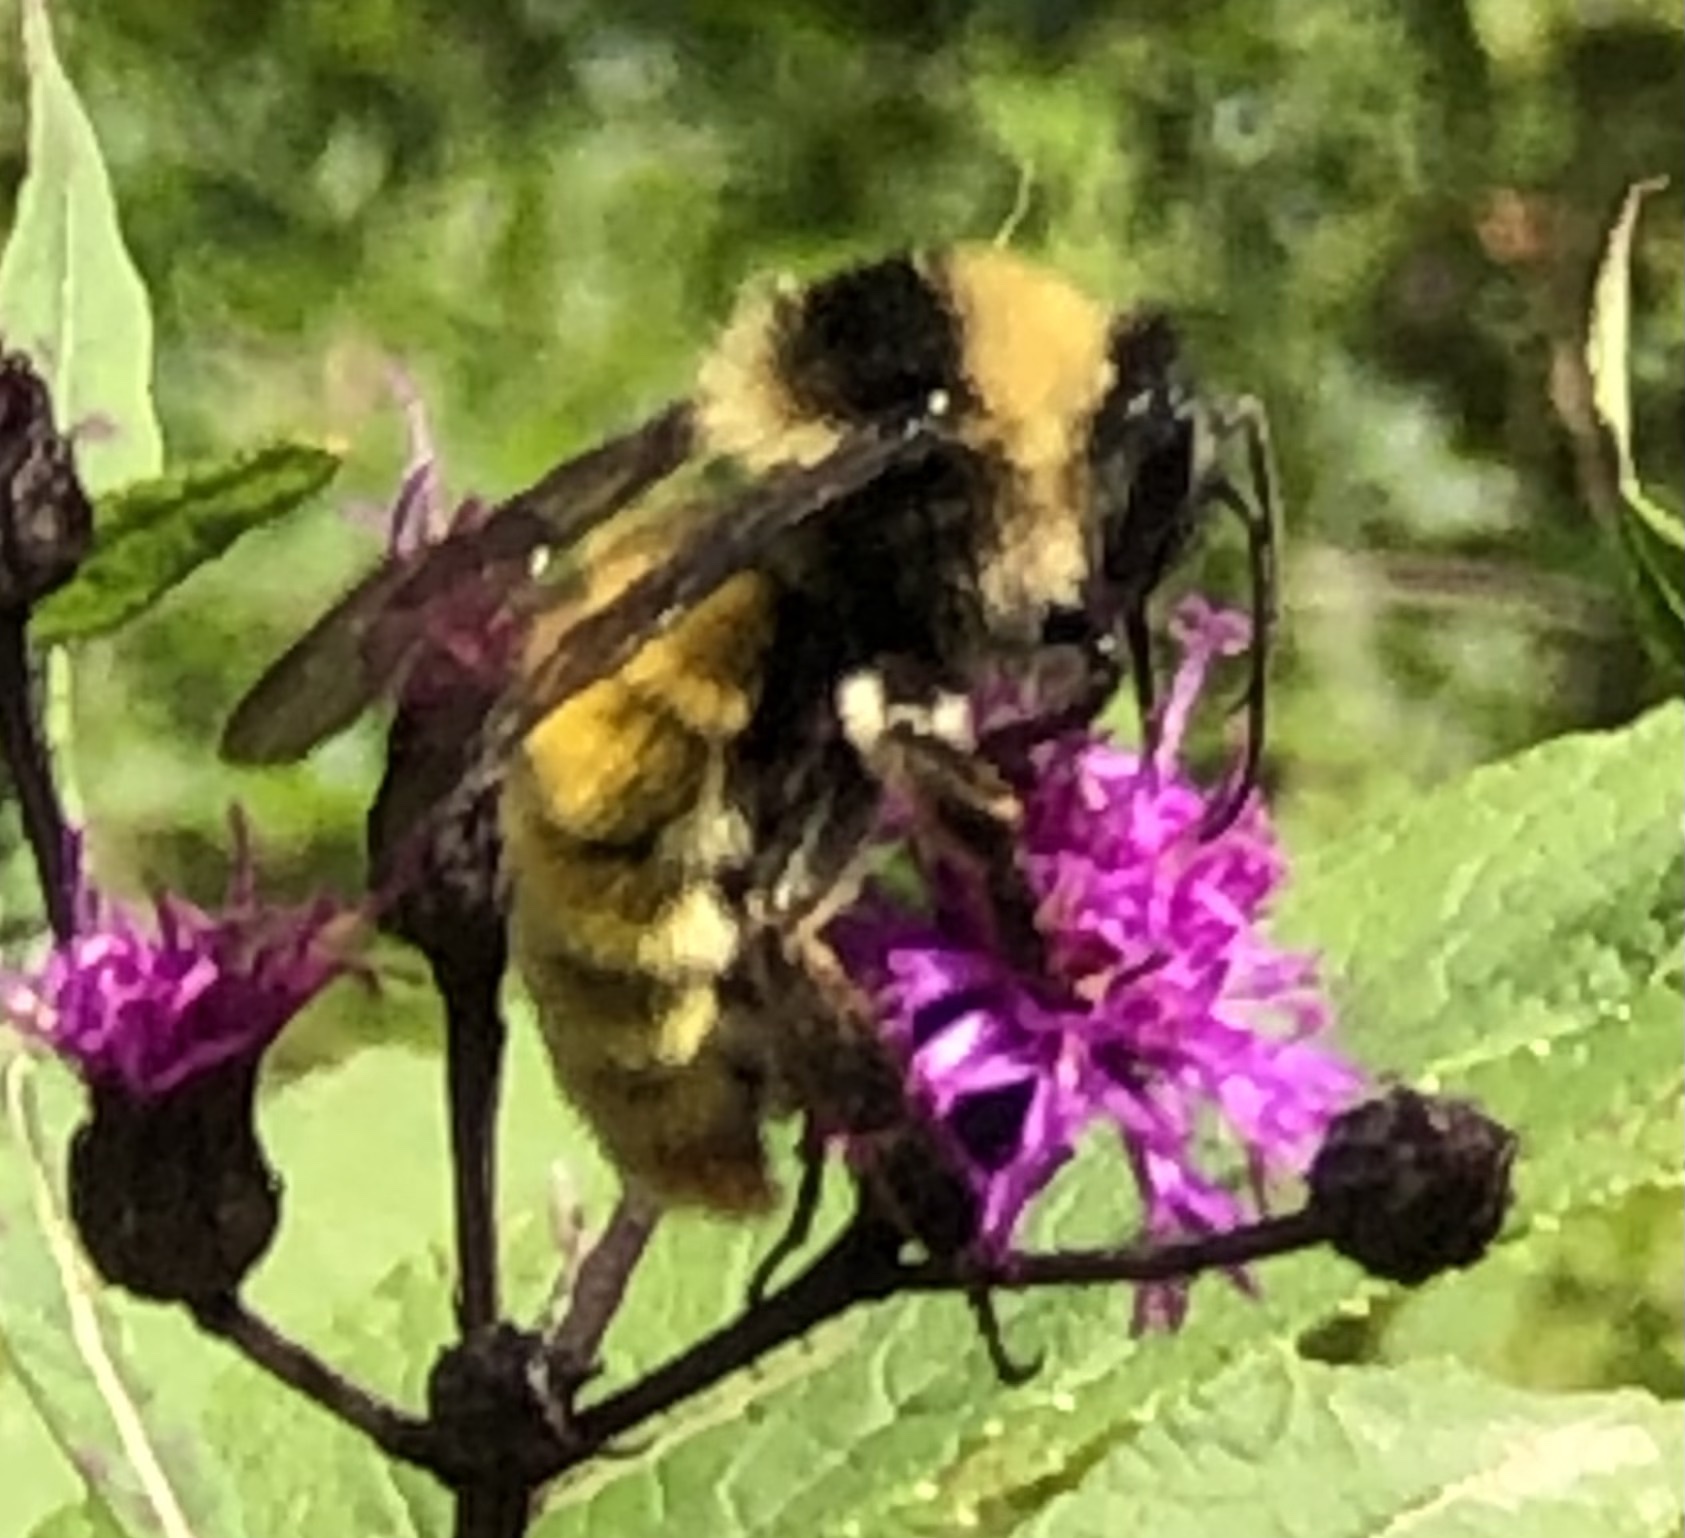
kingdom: Animalia
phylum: Arthropoda
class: Insecta
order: Hymenoptera
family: Apidae
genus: Bombus
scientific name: Bombus pensylvanicus
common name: Bumble bee
